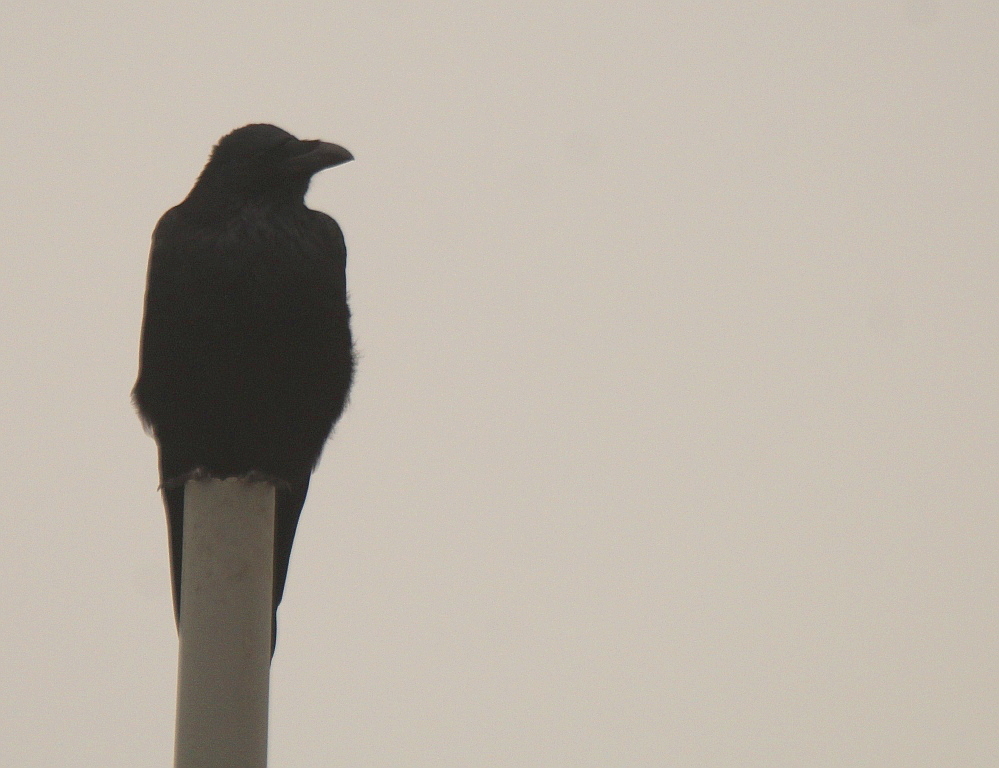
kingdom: Animalia
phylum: Chordata
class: Aves
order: Passeriformes
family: Corvidae
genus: Corvus
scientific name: Corvus corone
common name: Carrion crow
